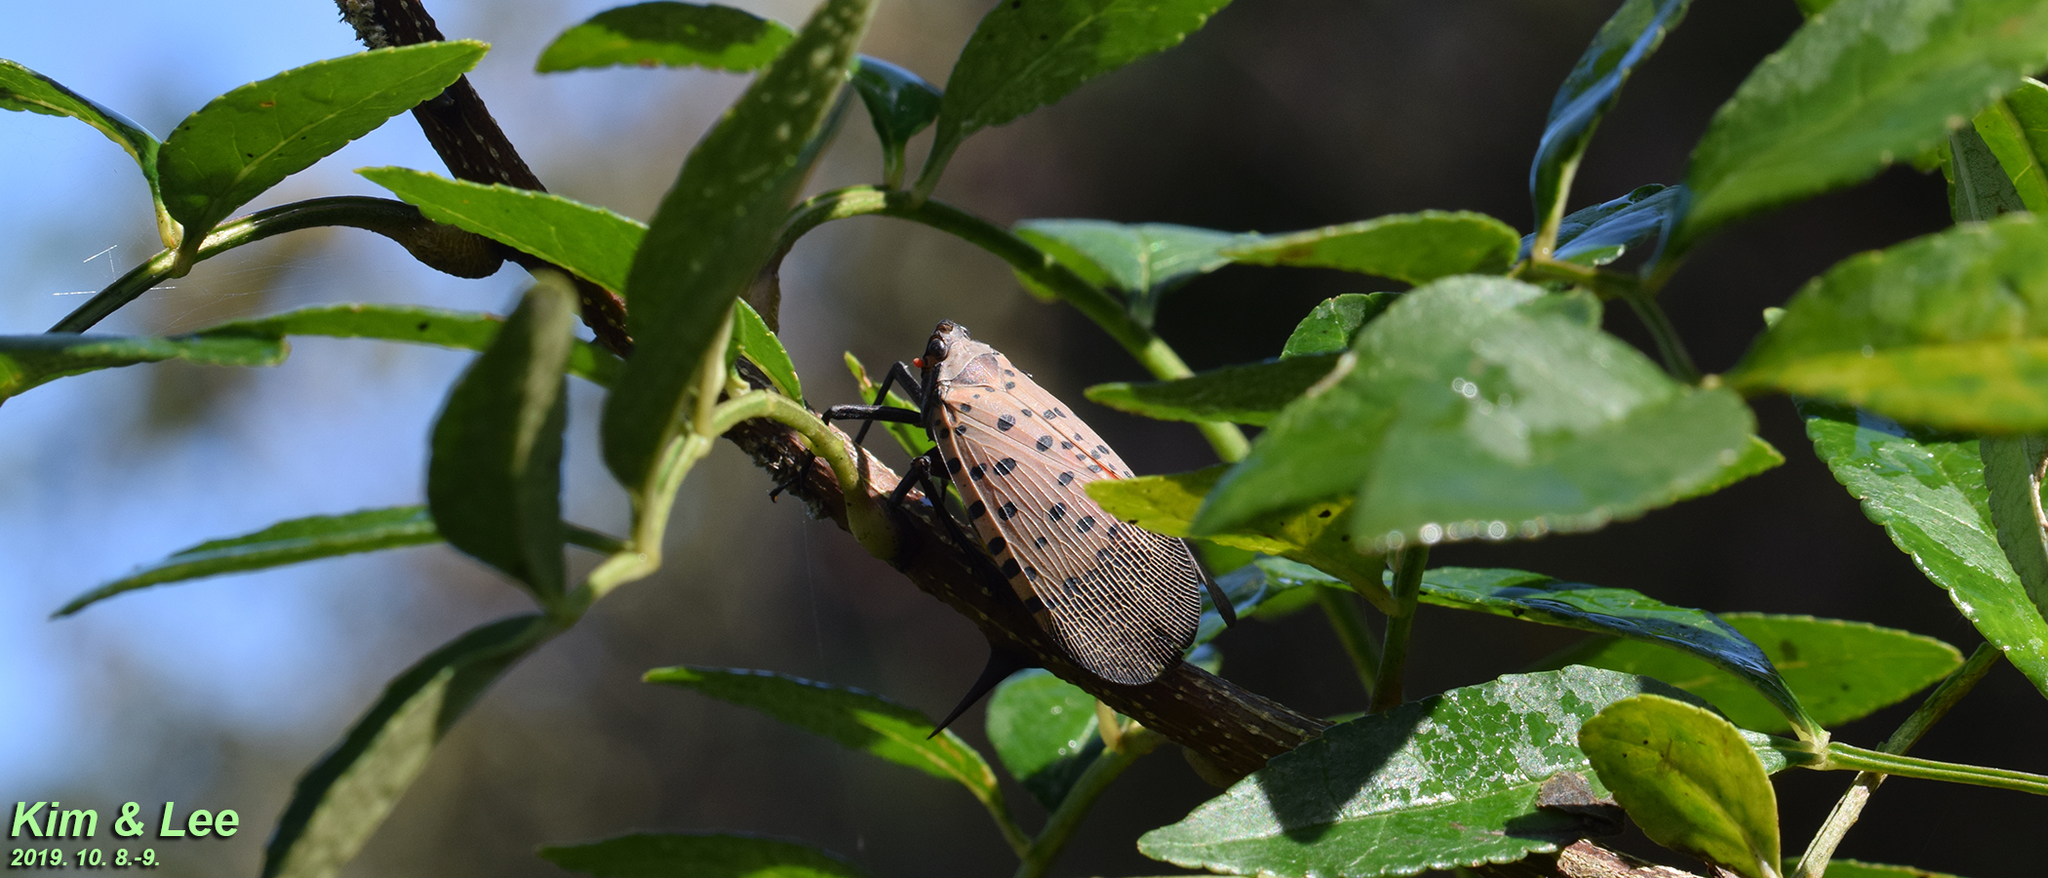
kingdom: Animalia
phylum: Arthropoda
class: Insecta
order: Hemiptera
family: Fulgoridae
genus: Lycorma
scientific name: Lycorma delicatula
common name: Spotted lanternfly
